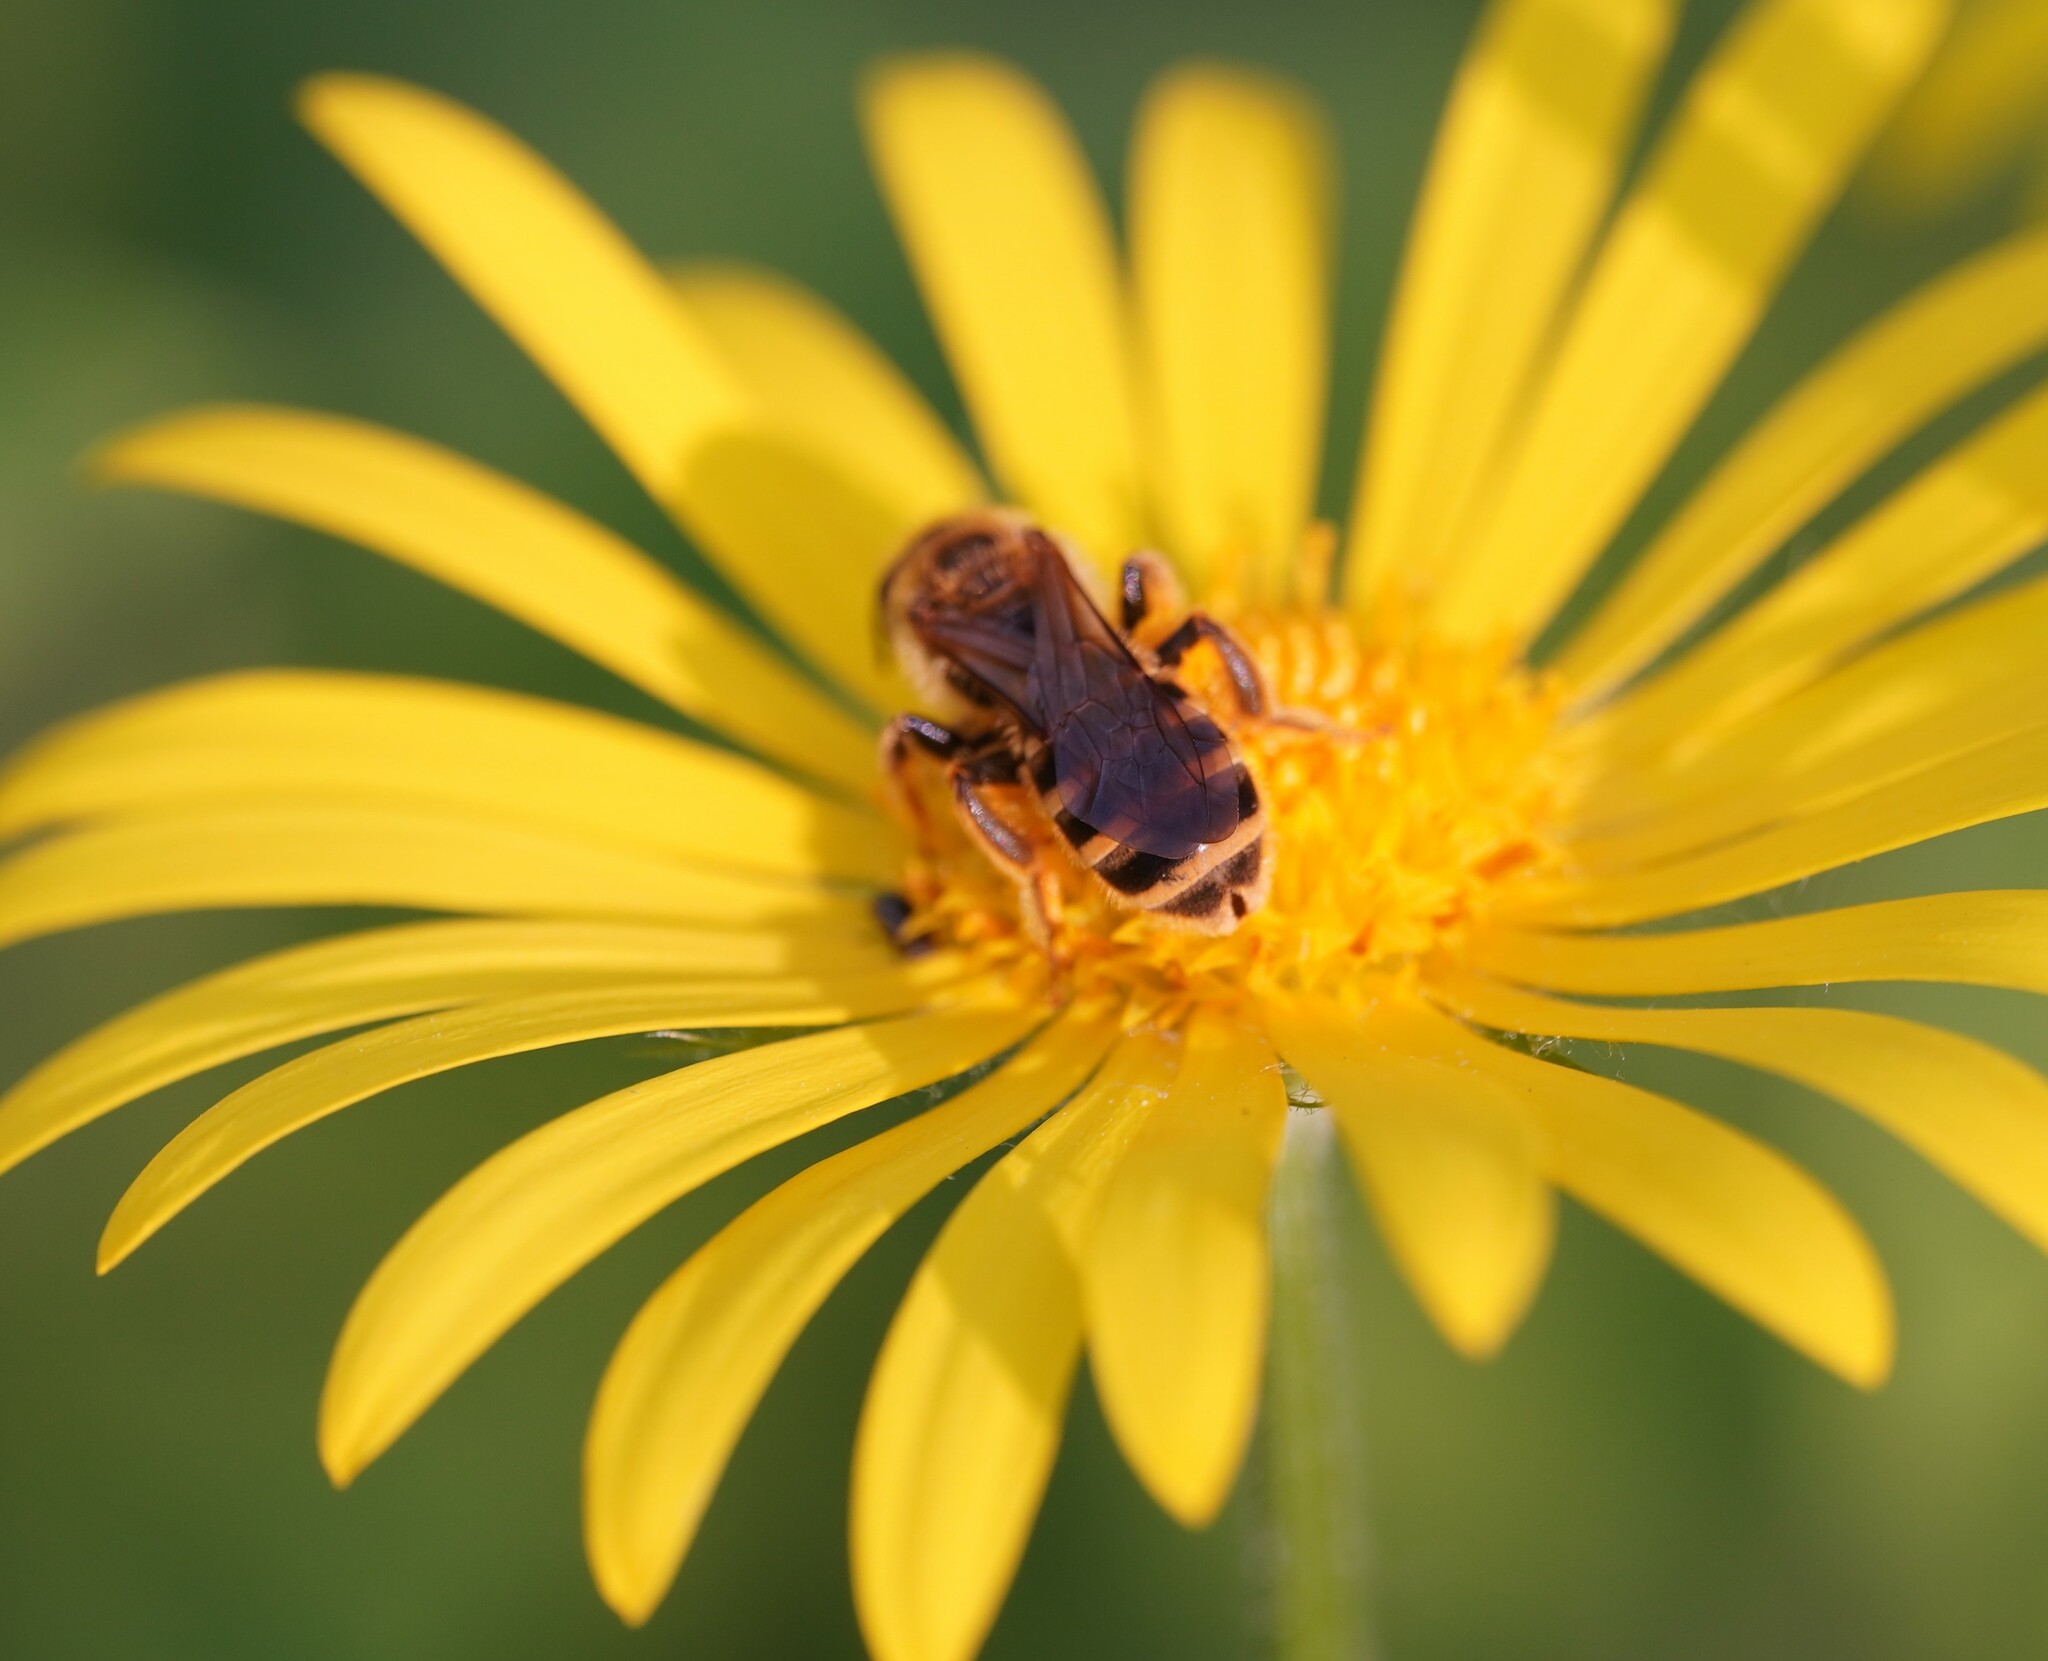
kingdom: Animalia
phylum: Arthropoda
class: Insecta
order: Hymenoptera
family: Halictidae
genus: Halictus
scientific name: Halictus scabiosae
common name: Great banded furrow bee
